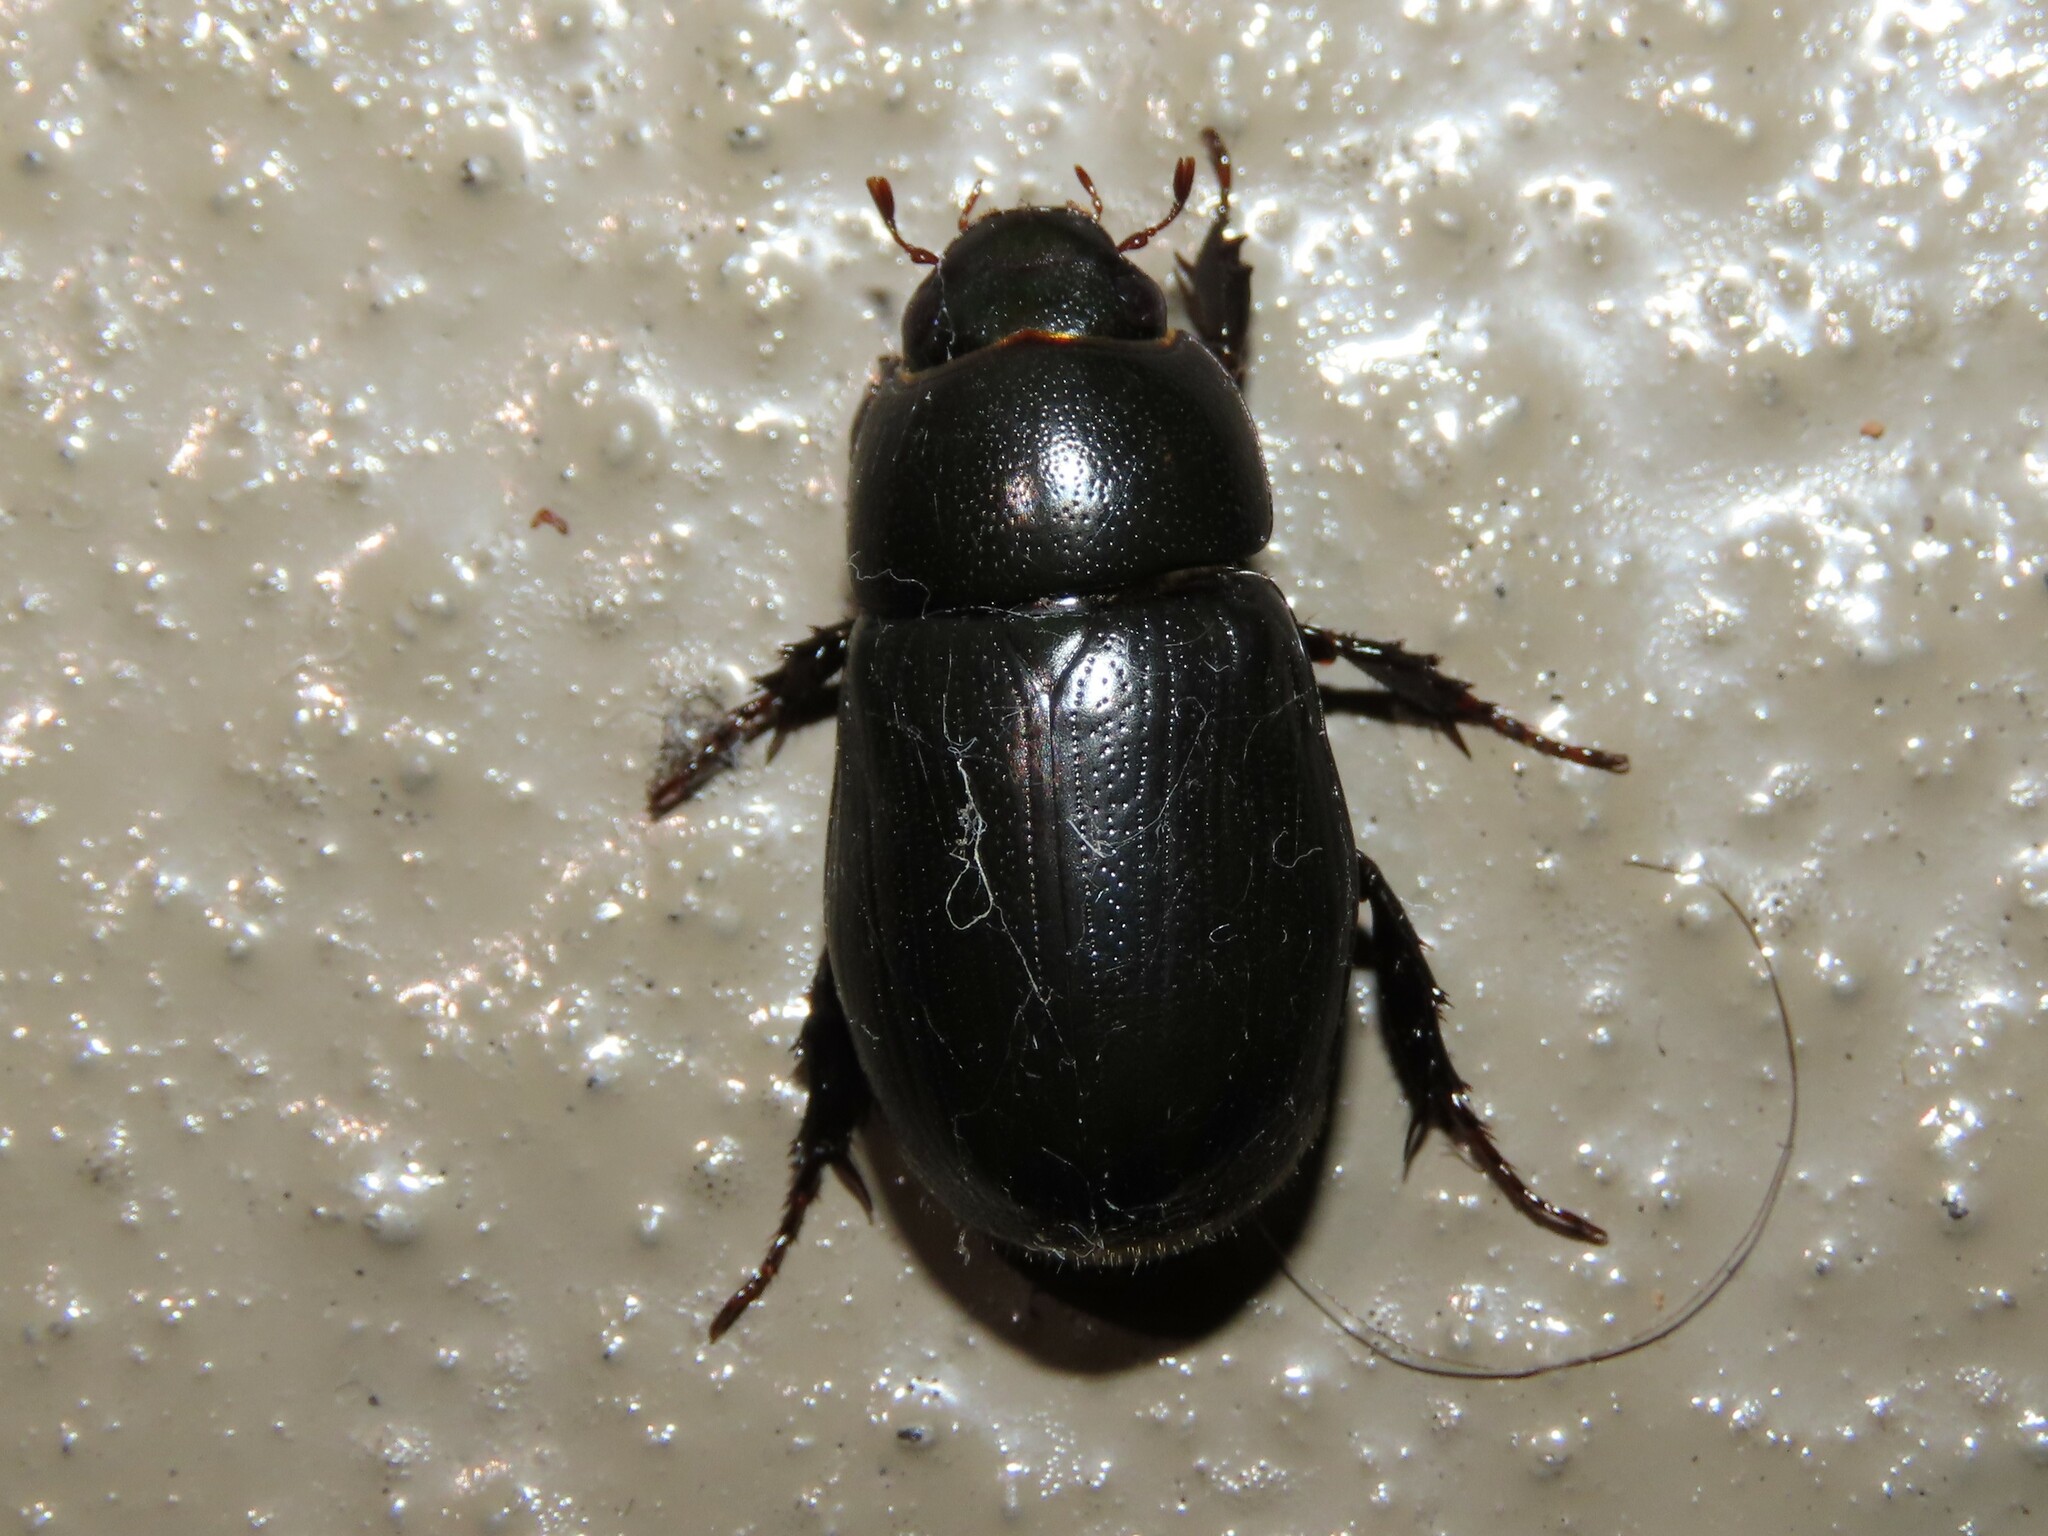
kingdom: Animalia
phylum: Arthropoda
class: Insecta
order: Coleoptera
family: Scarabaeidae
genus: Dyscinetus
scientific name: Dyscinetus morator
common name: Rice beetle
